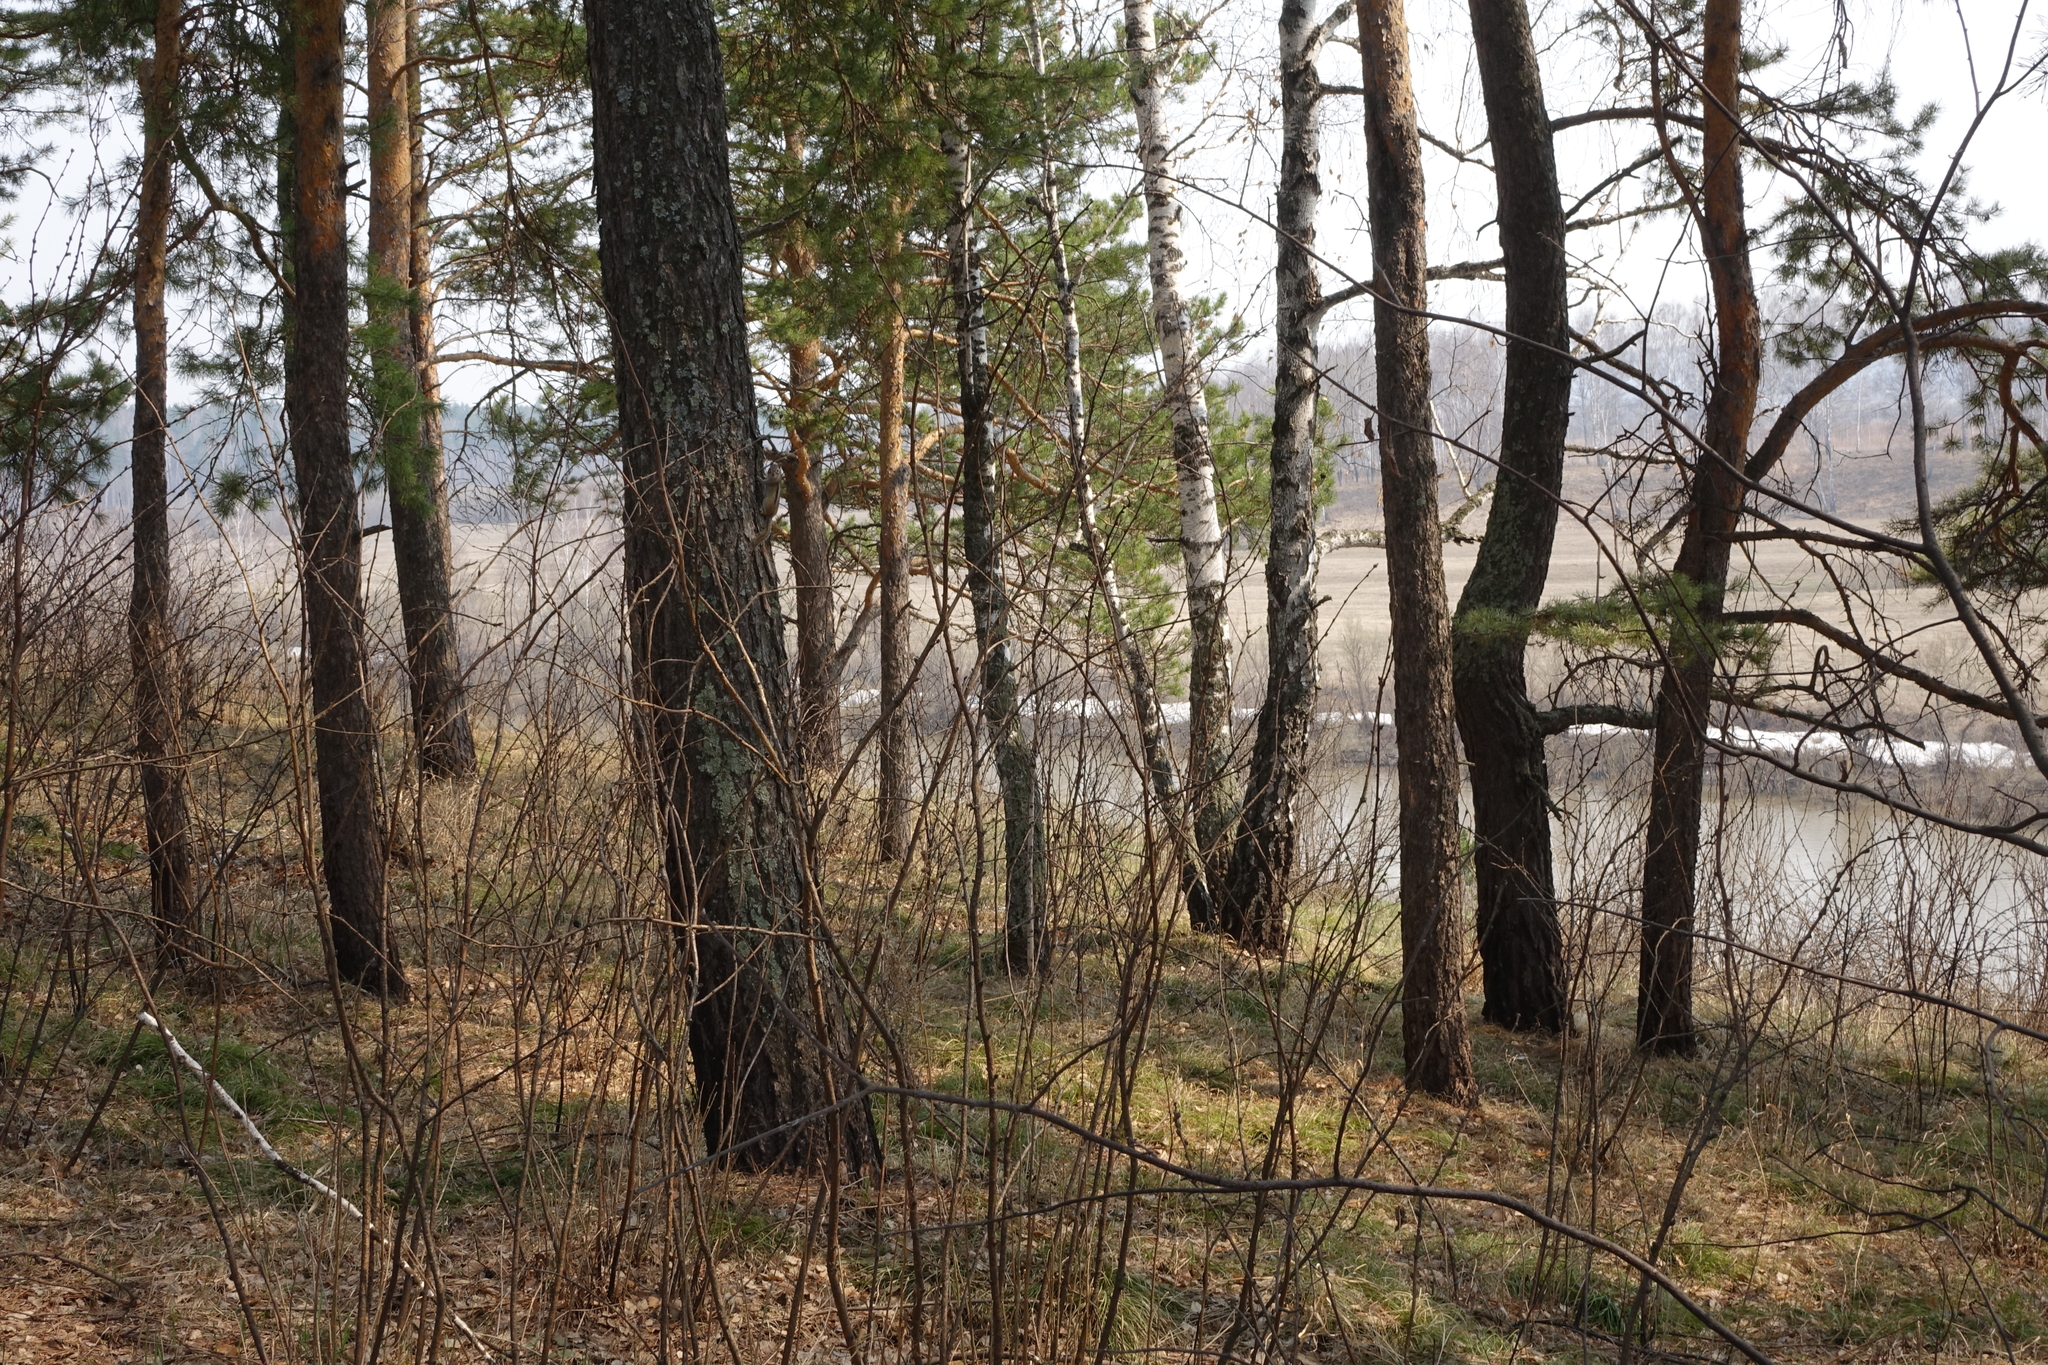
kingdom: Plantae
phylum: Tracheophyta
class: Pinopsida
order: Pinales
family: Pinaceae
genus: Pinus
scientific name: Pinus sylvestris
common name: Scots pine
